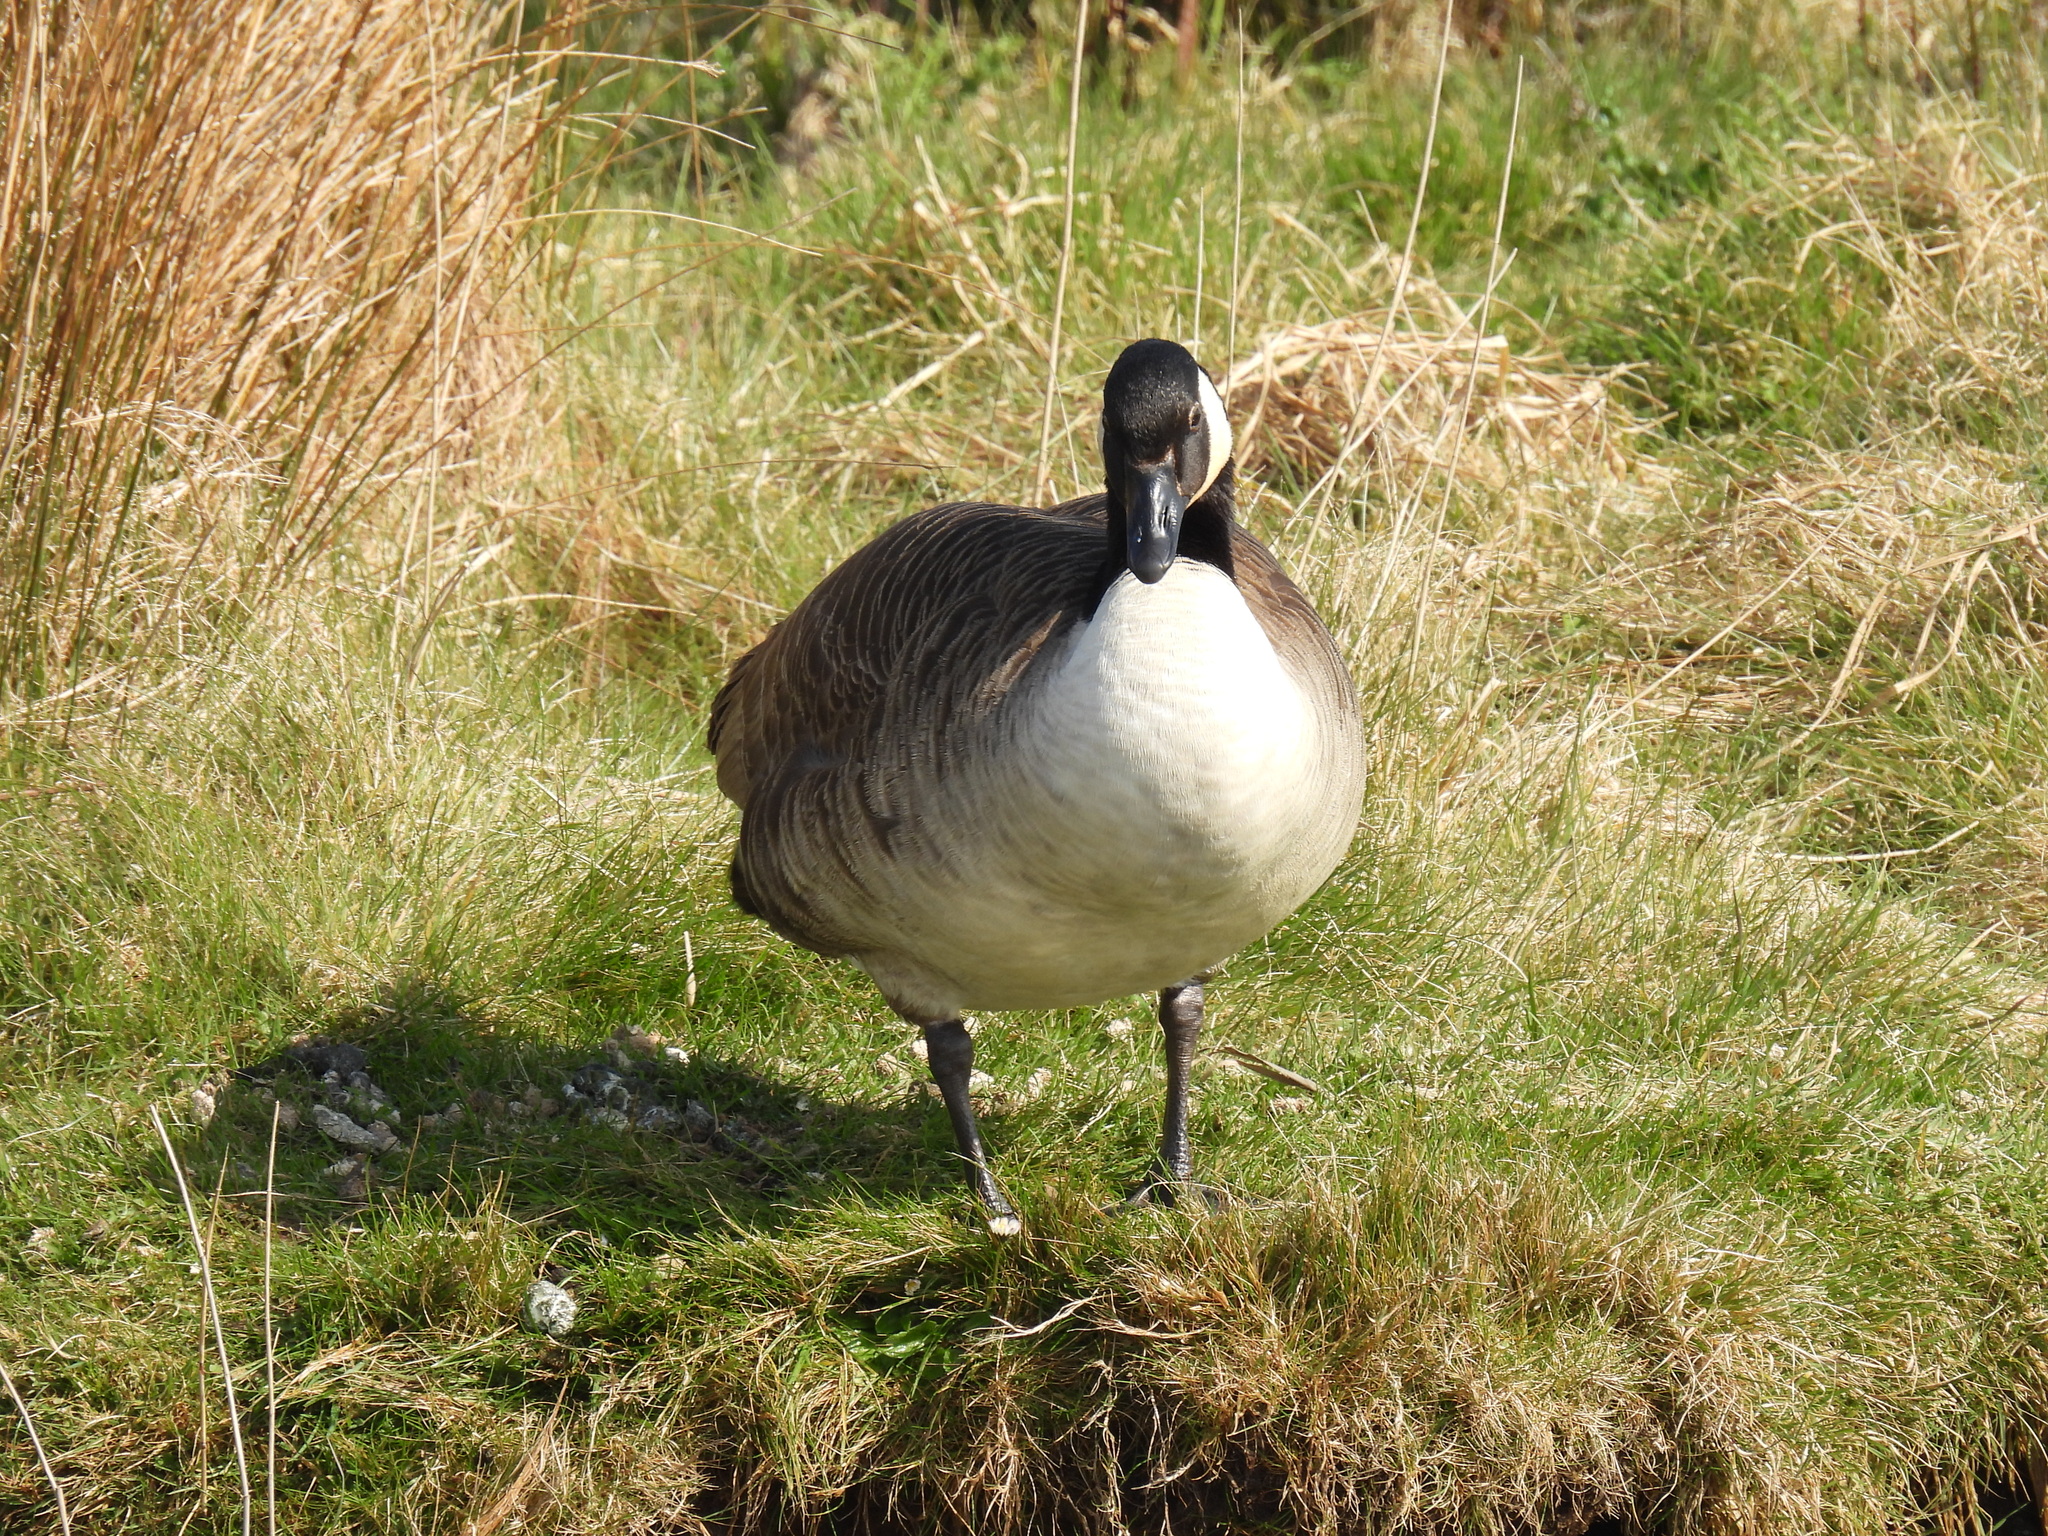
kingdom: Animalia
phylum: Chordata
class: Aves
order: Anseriformes
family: Anatidae
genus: Branta
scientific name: Branta canadensis
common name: Canada goose
